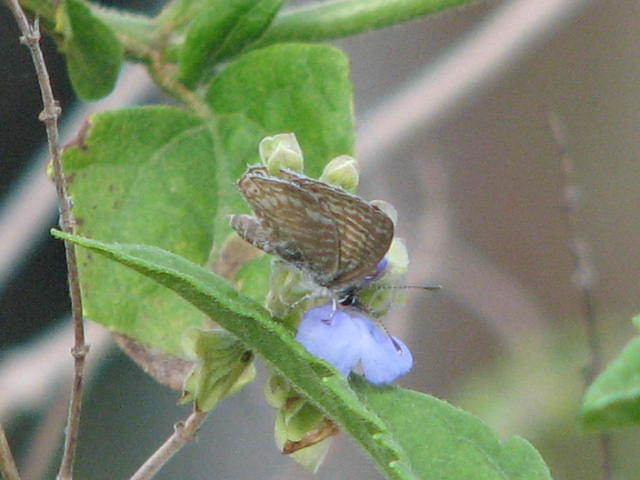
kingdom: Animalia
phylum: Arthropoda
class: Insecta
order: Lepidoptera
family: Lycaenidae
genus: Leptotes
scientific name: Leptotes marina
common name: Marine blue
